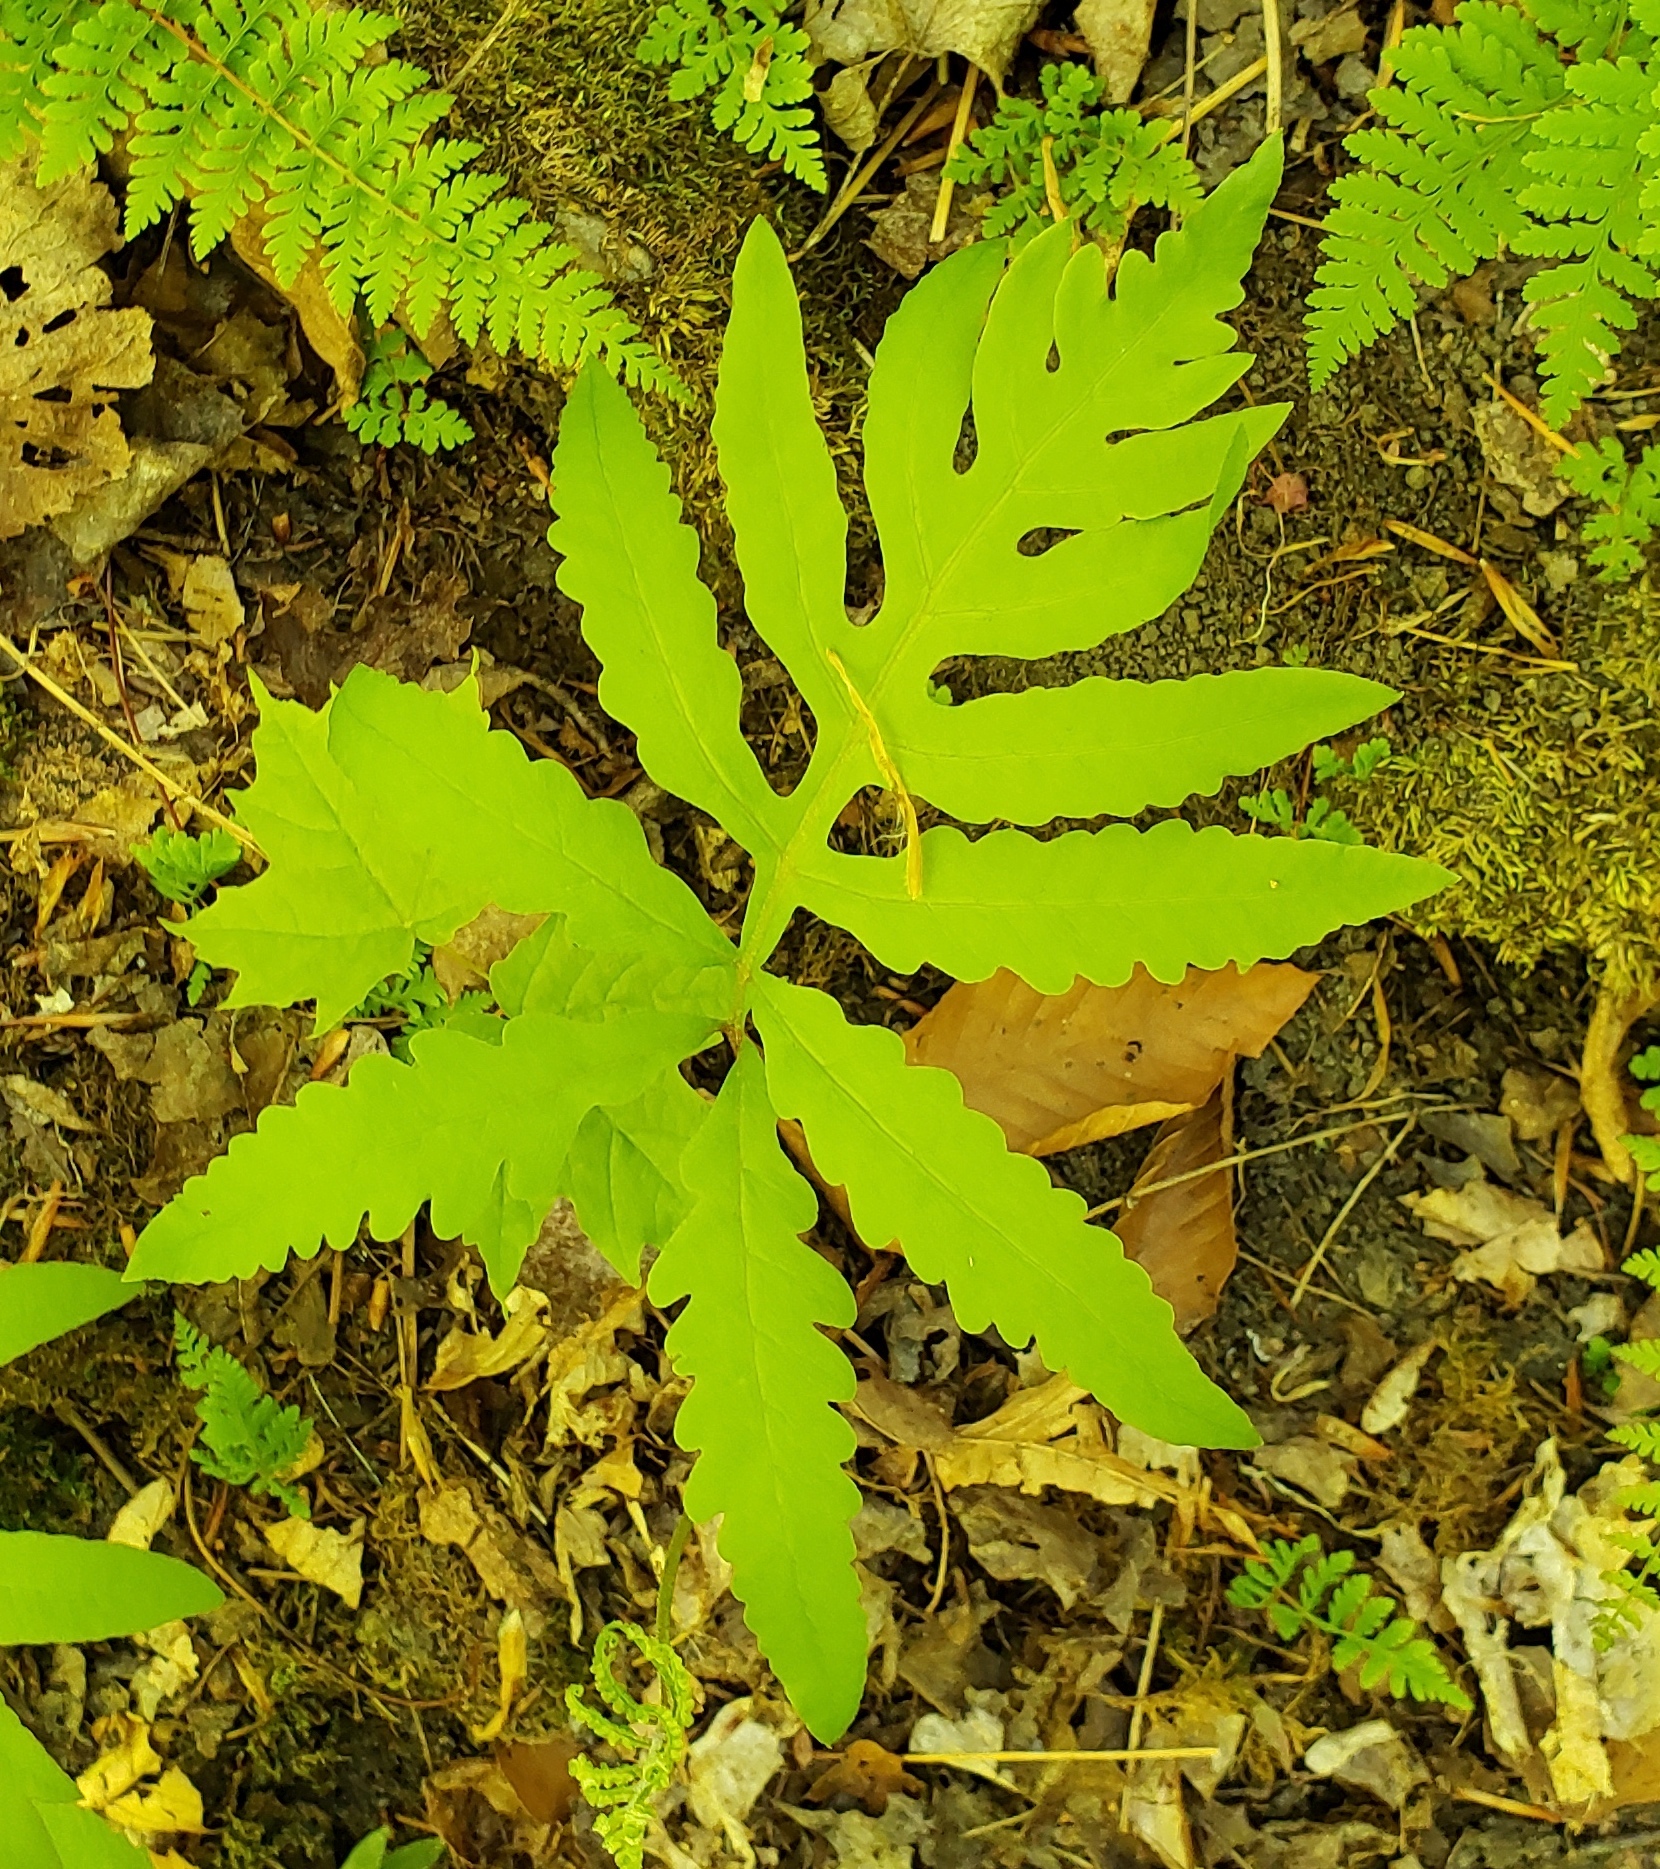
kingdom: Plantae
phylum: Tracheophyta
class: Polypodiopsida
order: Polypodiales
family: Onocleaceae
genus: Onoclea
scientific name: Onoclea sensibilis
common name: Sensitive fern
